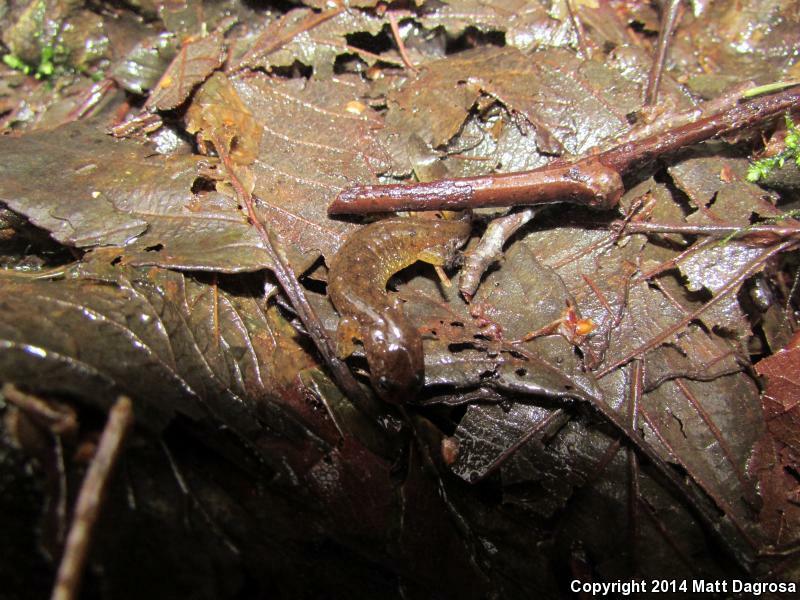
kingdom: Animalia
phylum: Chordata
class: Amphibia
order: Caudata
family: Rhyacotritonidae
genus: Rhyacotriton
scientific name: Rhyacotriton kezeri
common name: Columbia torrent salamander
